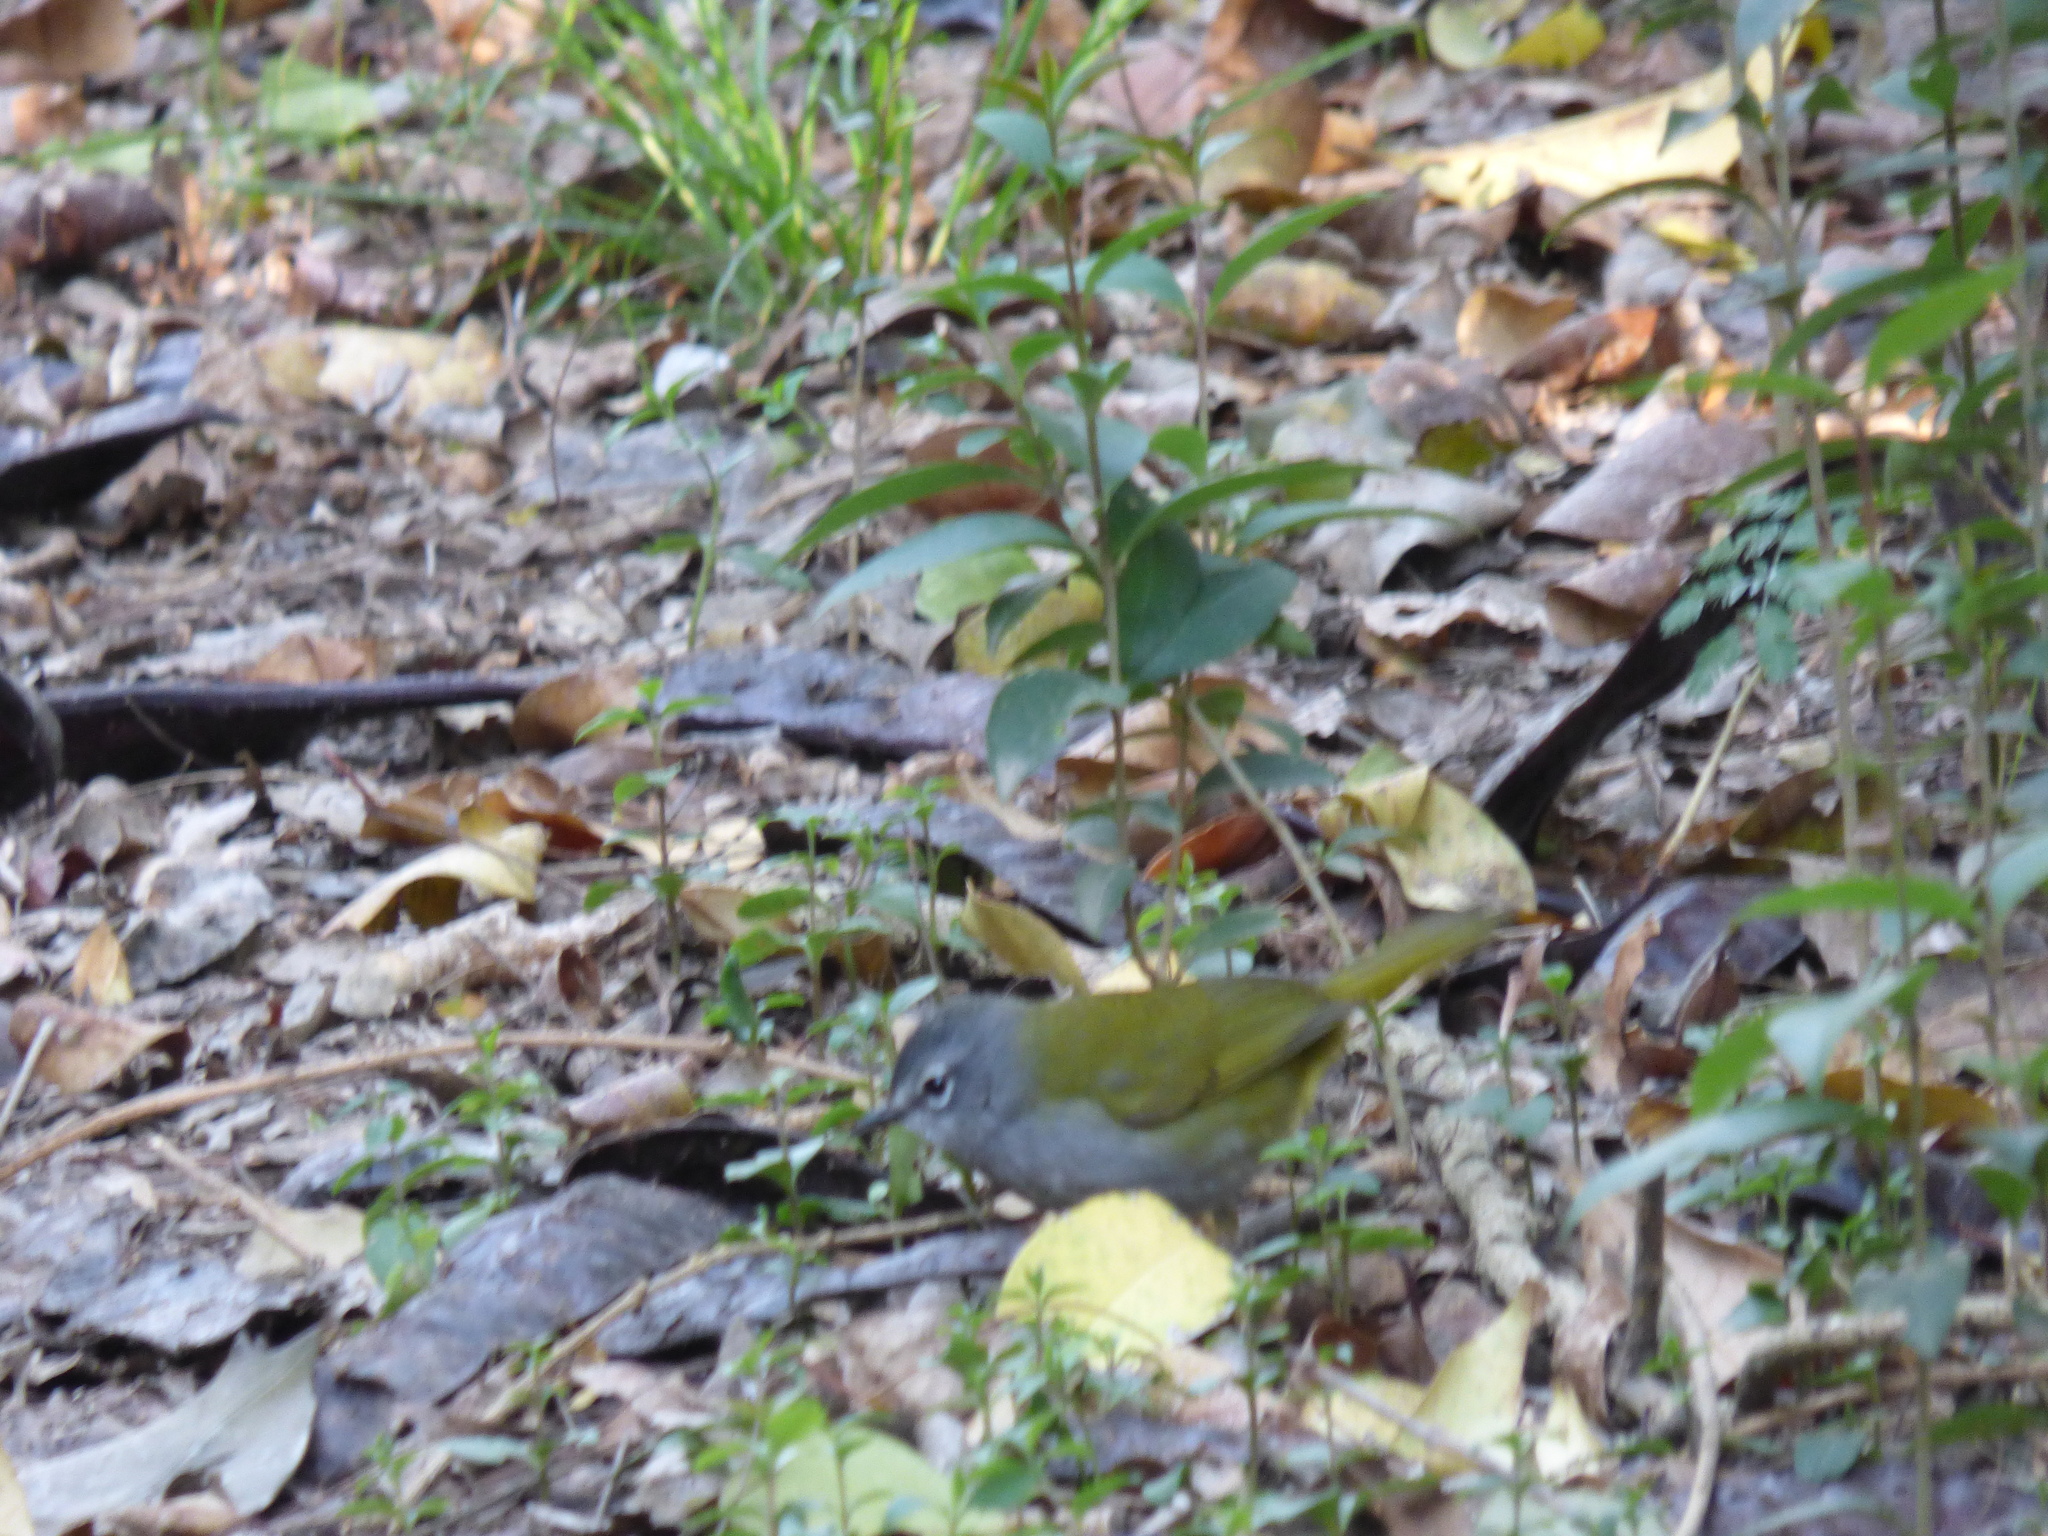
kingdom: Animalia
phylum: Chordata
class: Aves
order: Passeriformes
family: Parulidae
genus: Myiothlypis
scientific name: Myiothlypis leucoblephara
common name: White-rimmed warbler
